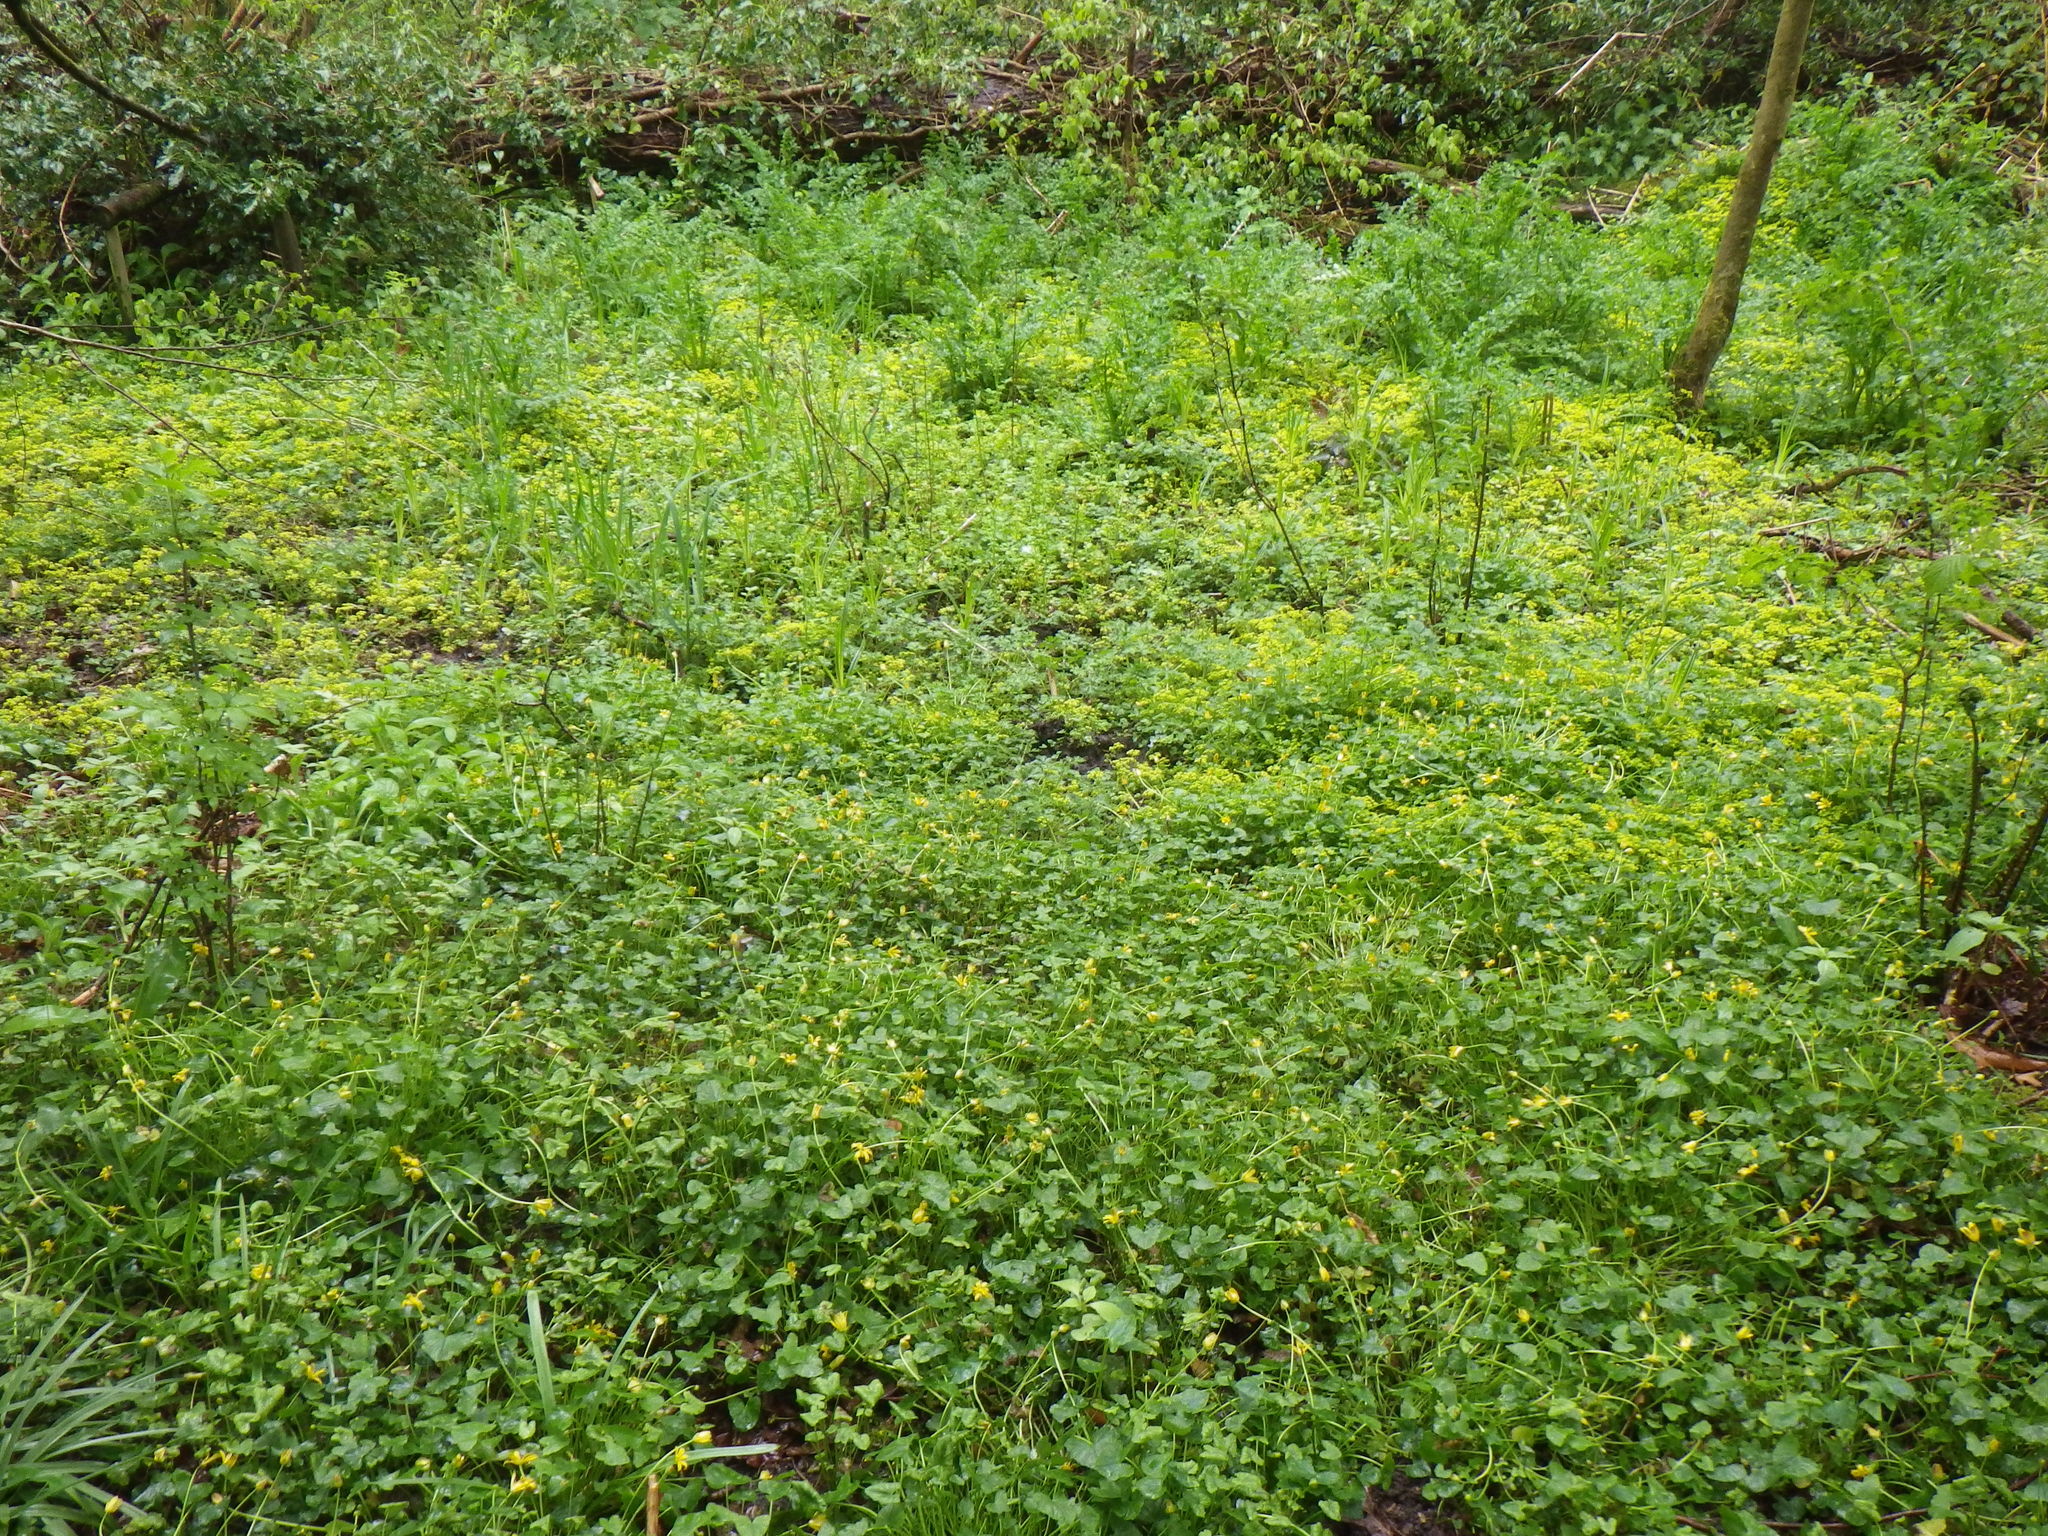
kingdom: Plantae
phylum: Tracheophyta
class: Magnoliopsida
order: Saxifragales
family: Saxifragaceae
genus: Chrysosplenium
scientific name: Chrysosplenium oppositifolium
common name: Opposite-leaved golden-saxifrage
